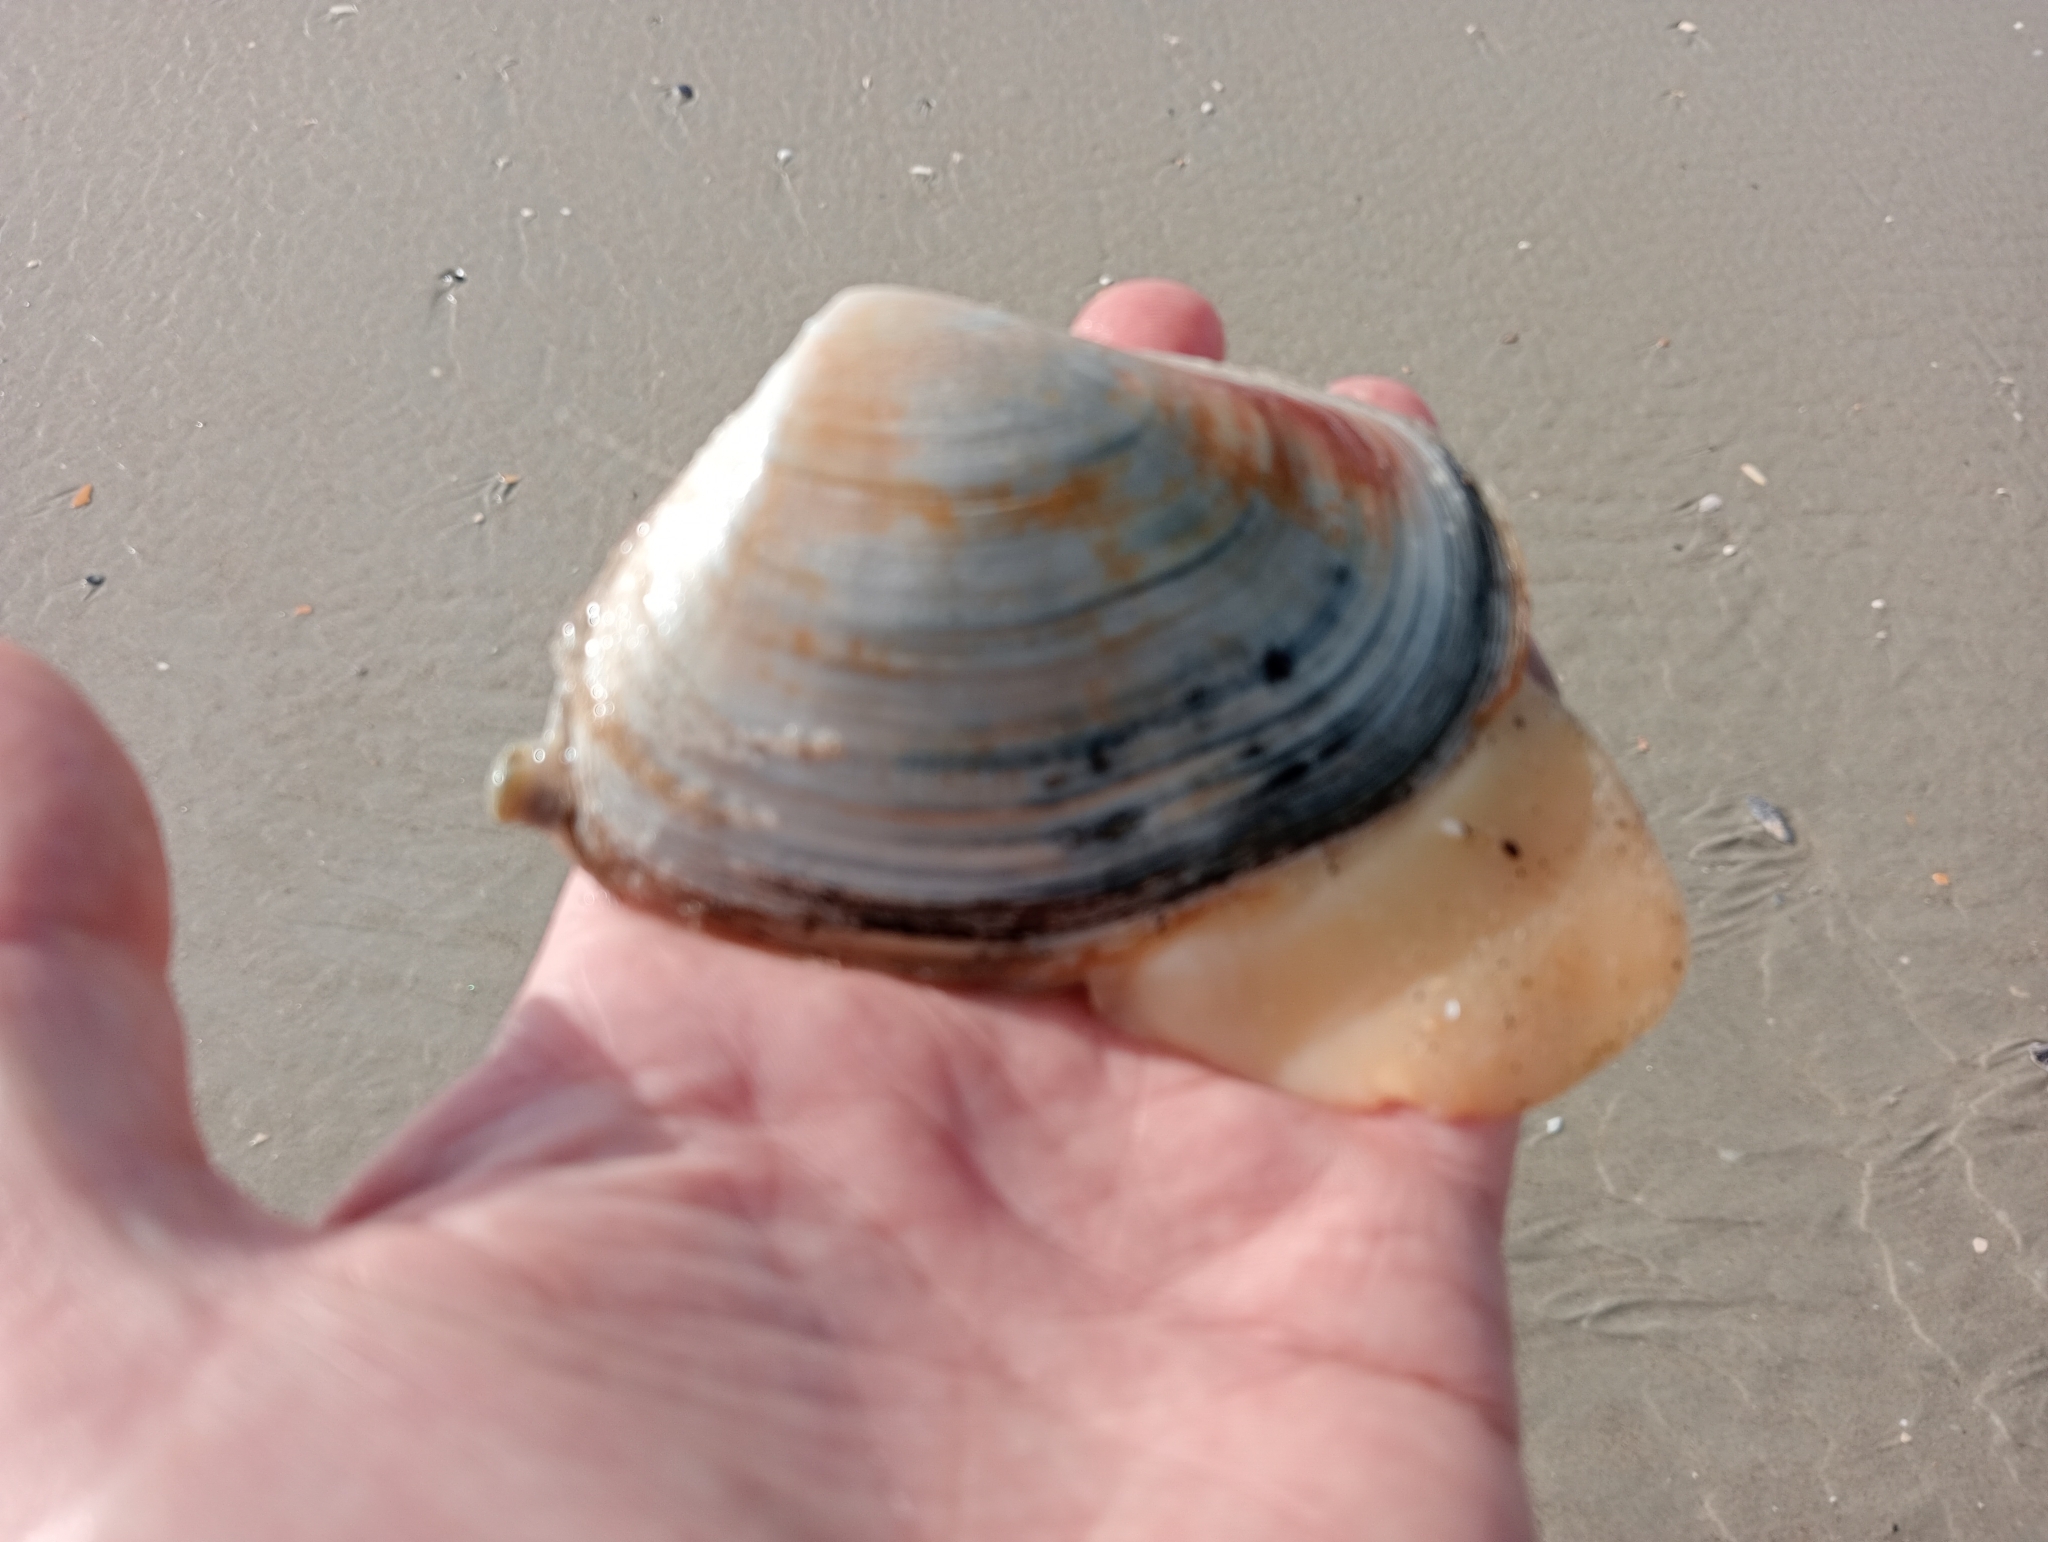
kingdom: Animalia
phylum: Mollusca
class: Bivalvia
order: Venerida
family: Mesodesmatidae
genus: Paphies
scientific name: Paphies donacina
